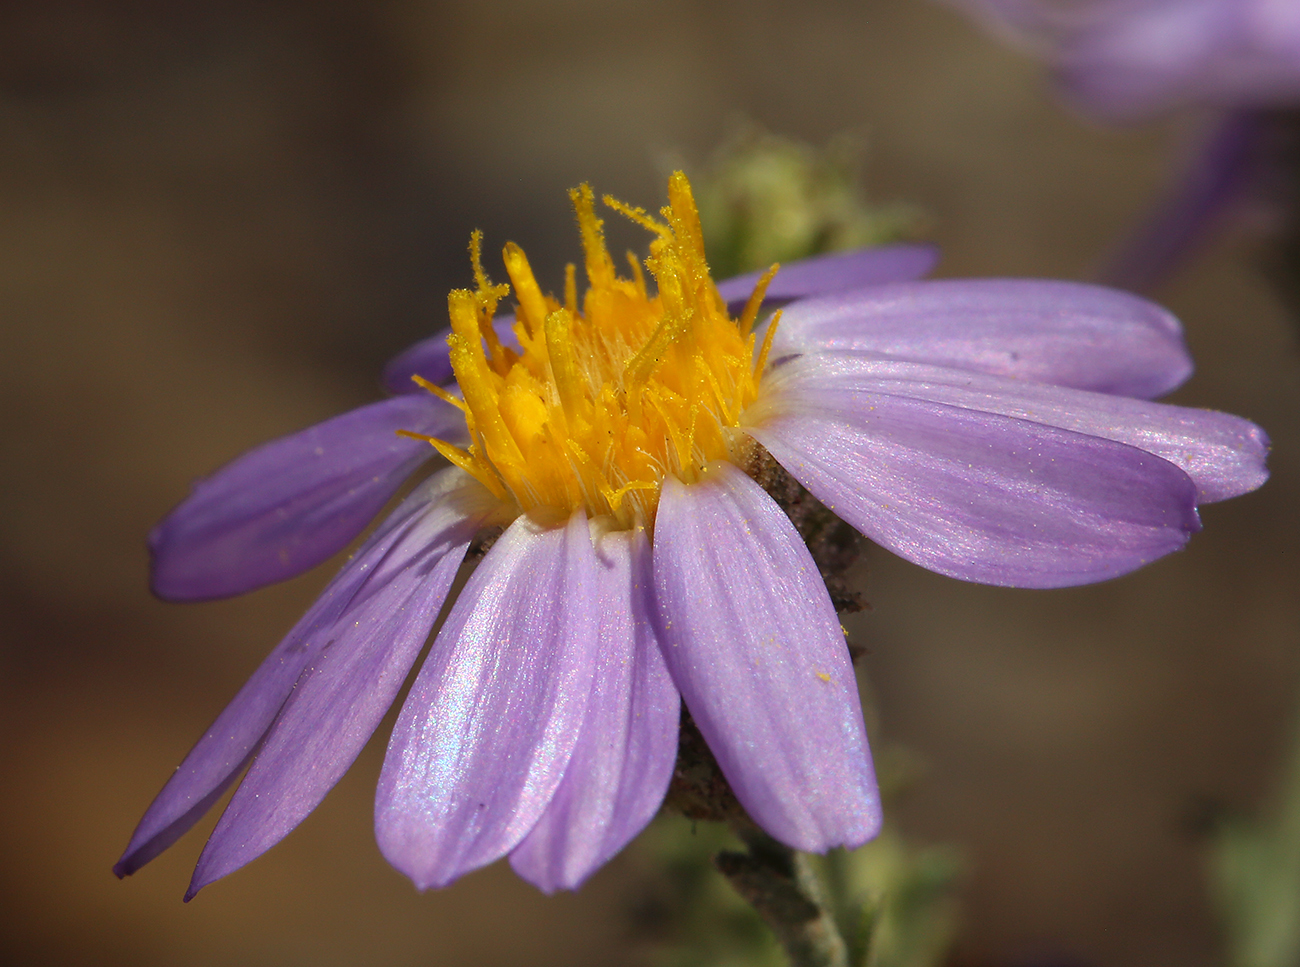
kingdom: Plantae
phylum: Tracheophyta
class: Magnoliopsida
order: Asterales
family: Asteraceae
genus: Dieteria
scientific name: Dieteria canescens
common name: Hoary-aster
